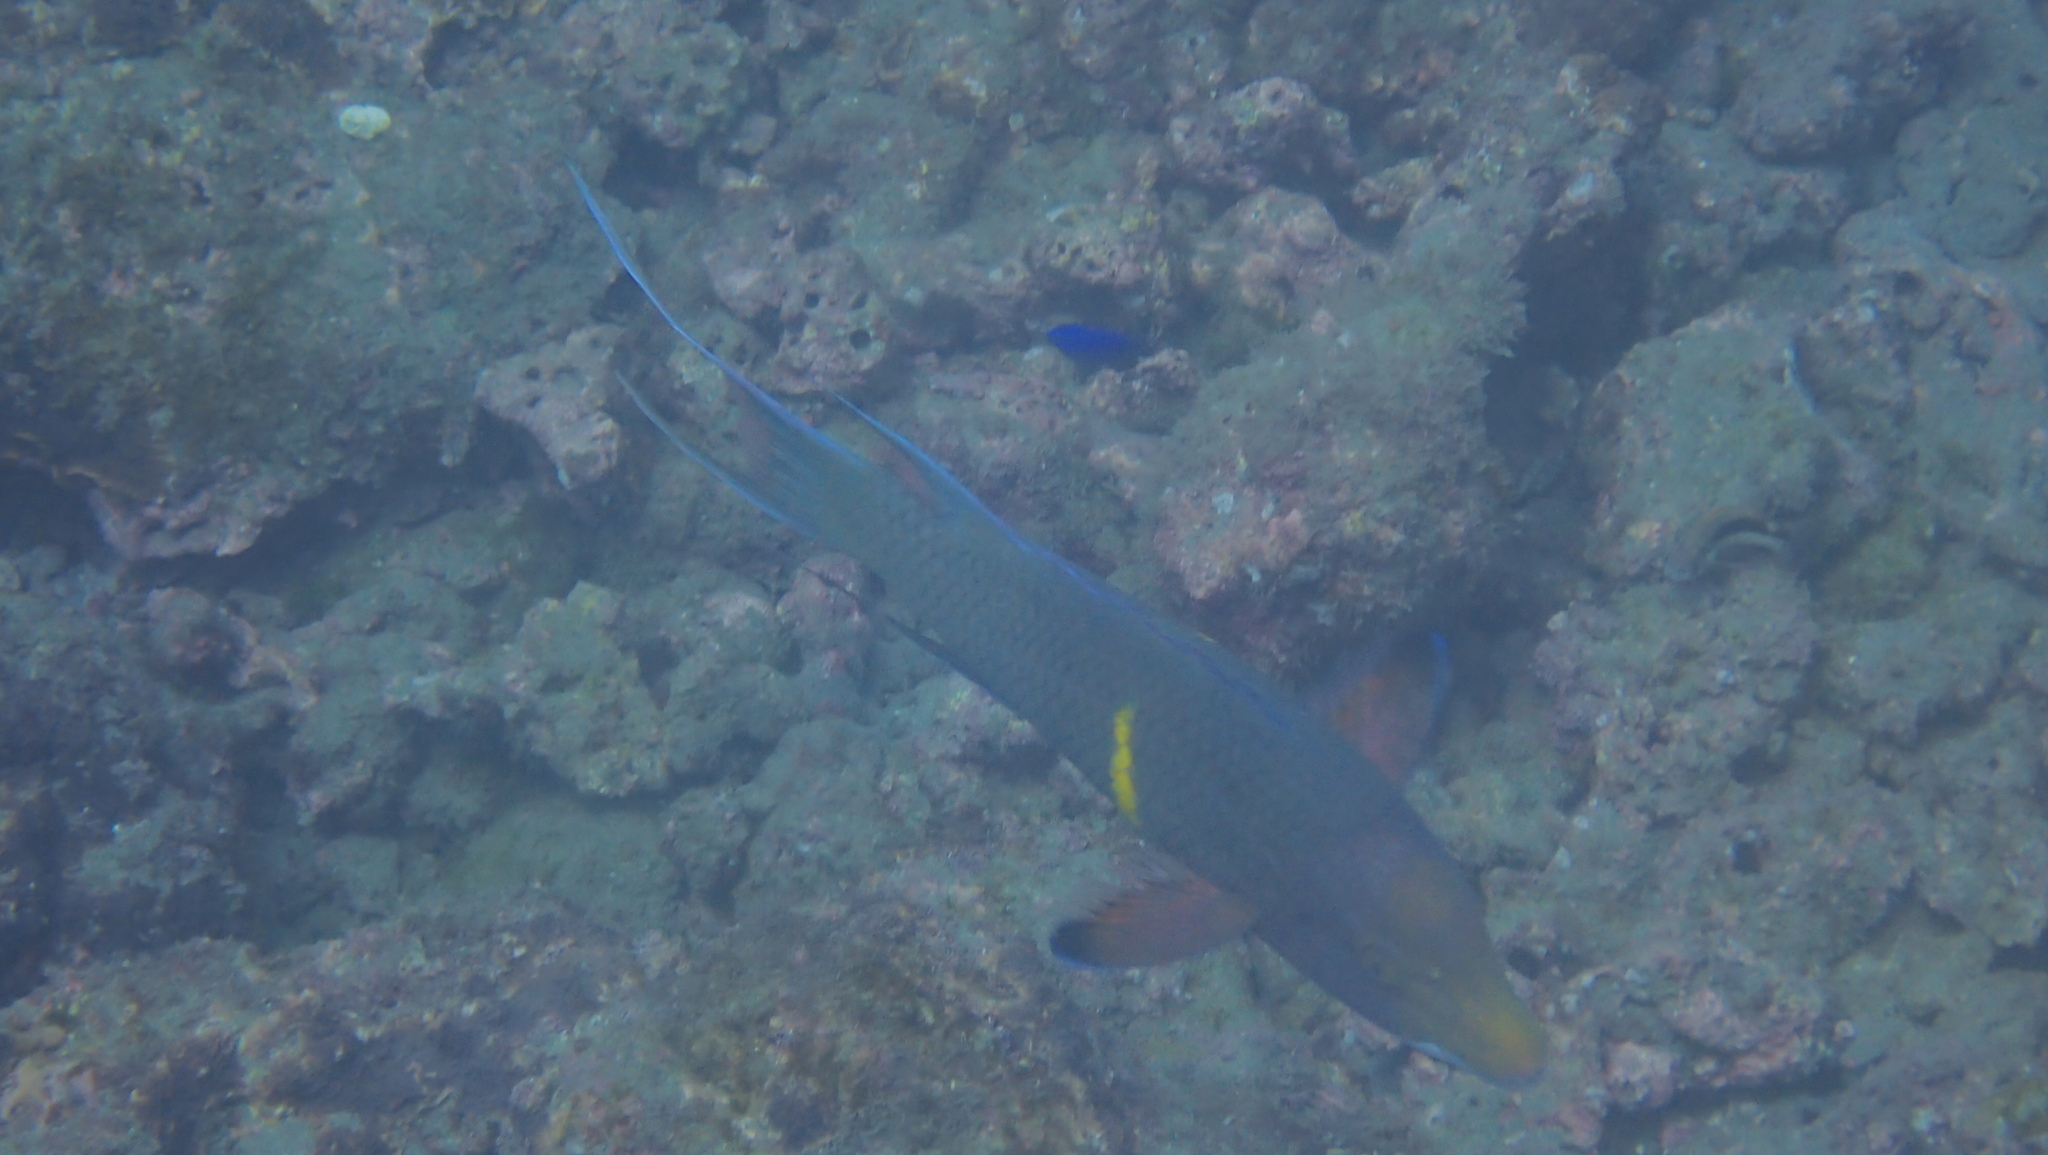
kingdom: Animalia
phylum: Chordata
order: Perciformes
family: Labridae
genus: Bodianus
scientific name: Bodianus diplotaenia
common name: Mexican hogfish
